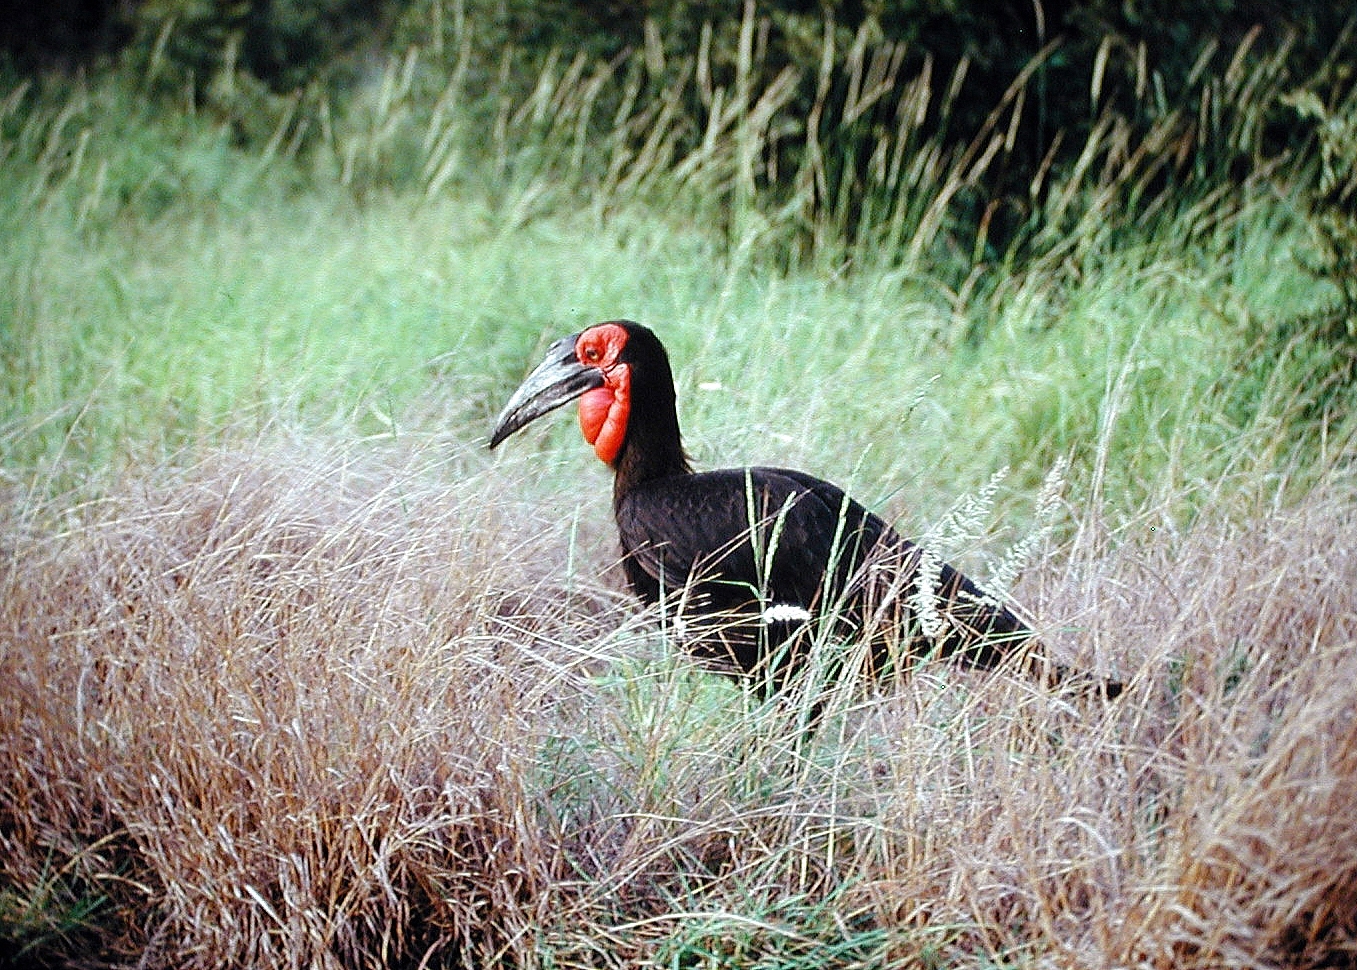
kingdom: Animalia
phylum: Chordata
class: Aves
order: Bucerotiformes
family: Bucorvidae
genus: Bucorvus
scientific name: Bucorvus leadbeateri
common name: Southern ground-hornbill
